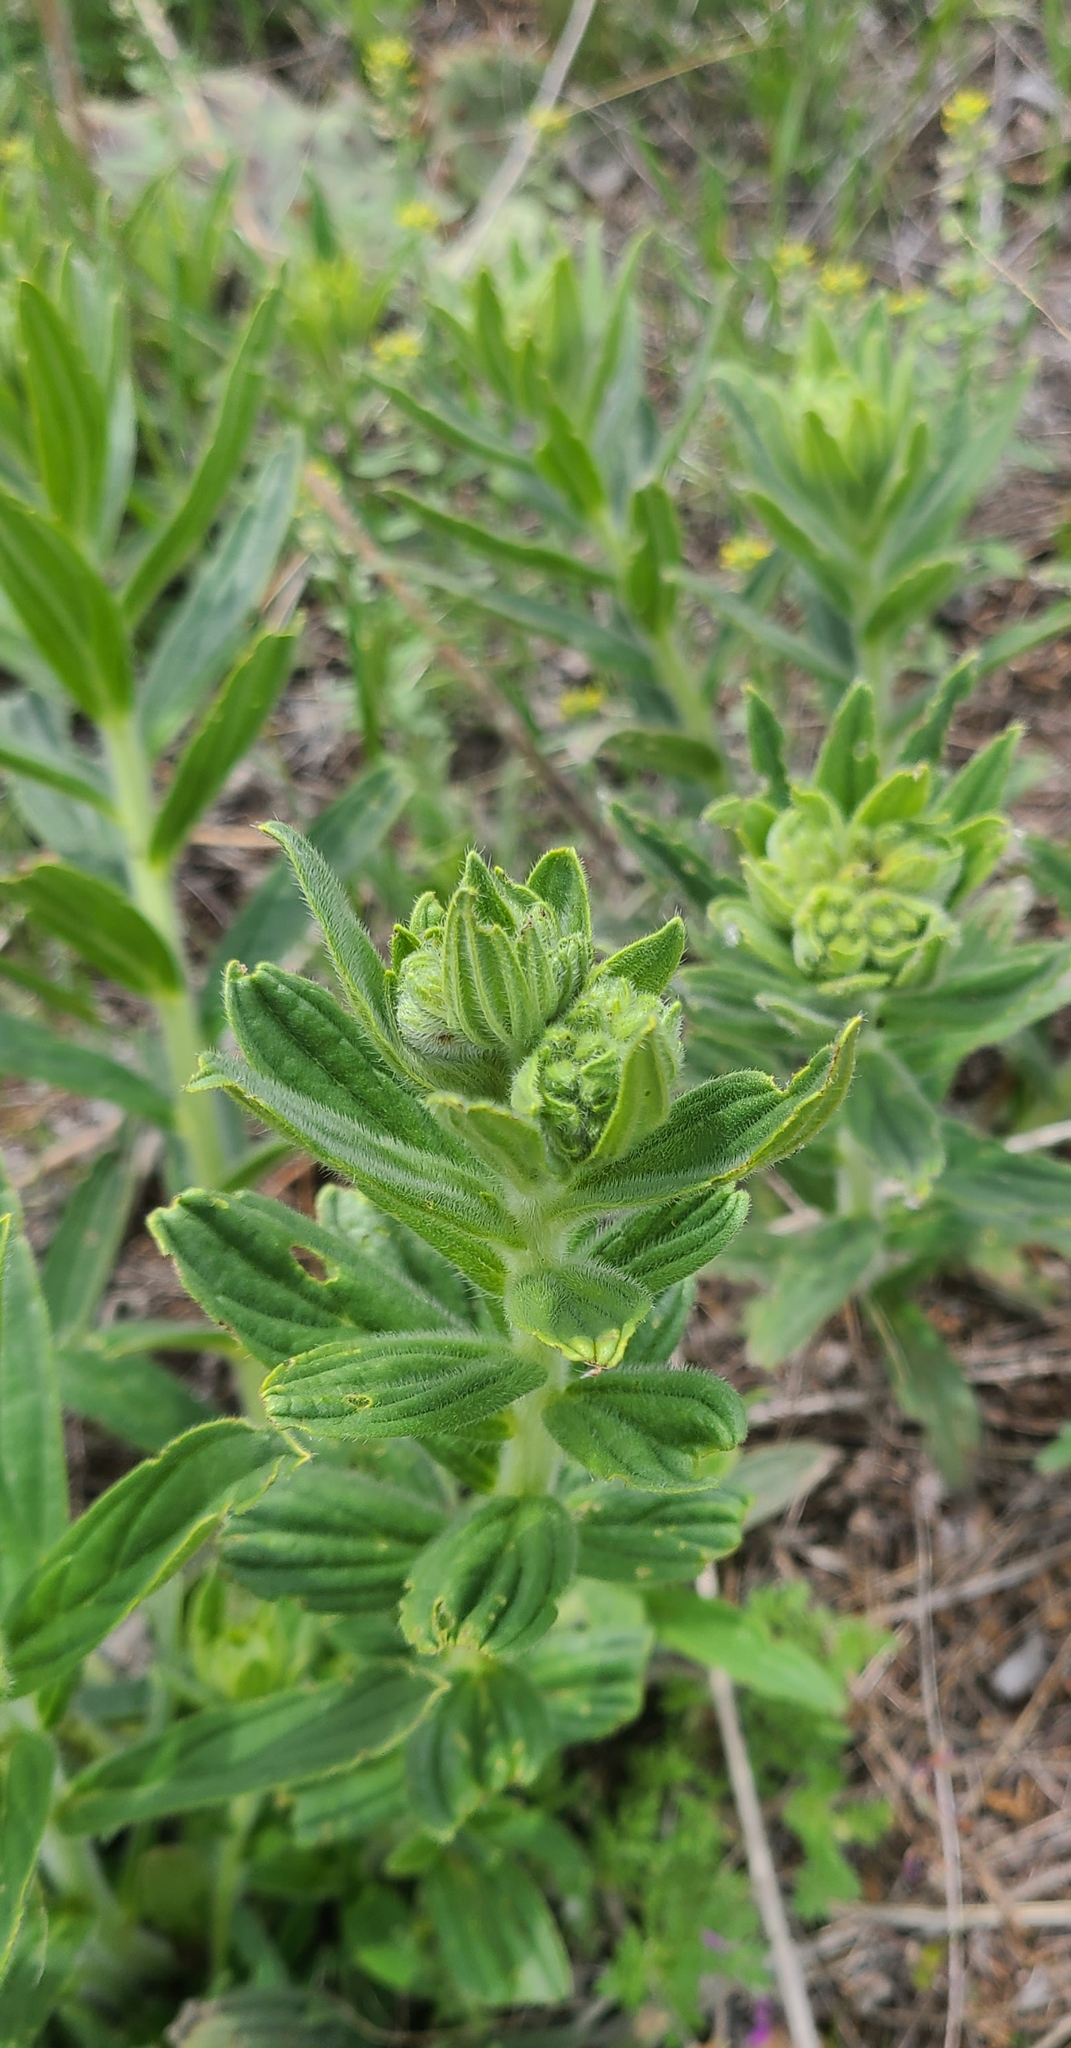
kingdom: Plantae
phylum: Tracheophyta
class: Magnoliopsida
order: Boraginales
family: Boraginaceae
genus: Lithospermum
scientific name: Lithospermum occidentale
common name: Western false gromwell
